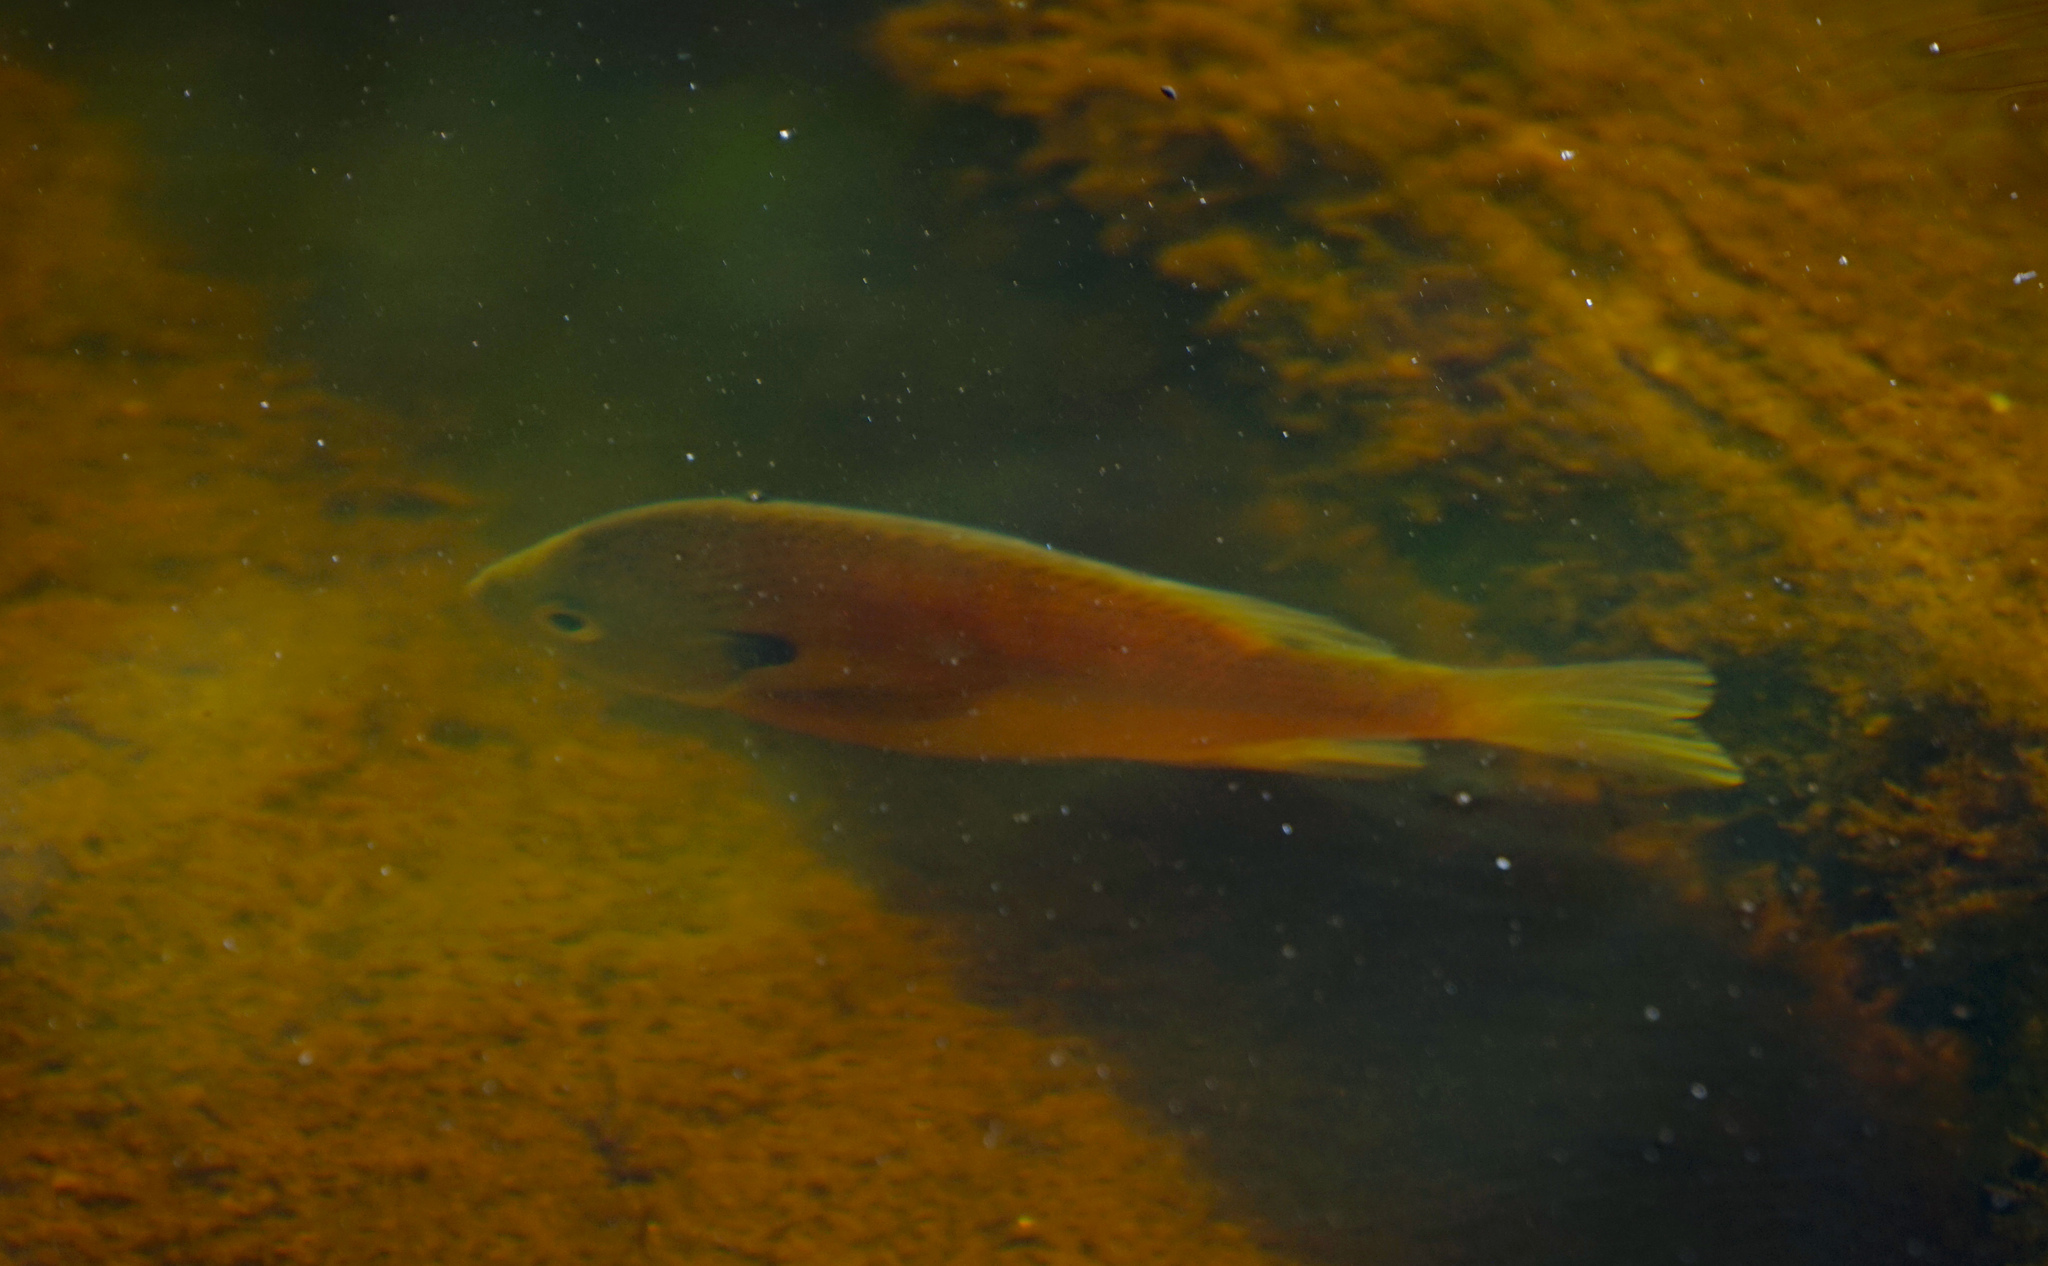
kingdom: Animalia
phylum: Chordata
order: Perciformes
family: Centrarchidae
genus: Lepomis
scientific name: Lepomis macrochirus
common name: Bluegill
